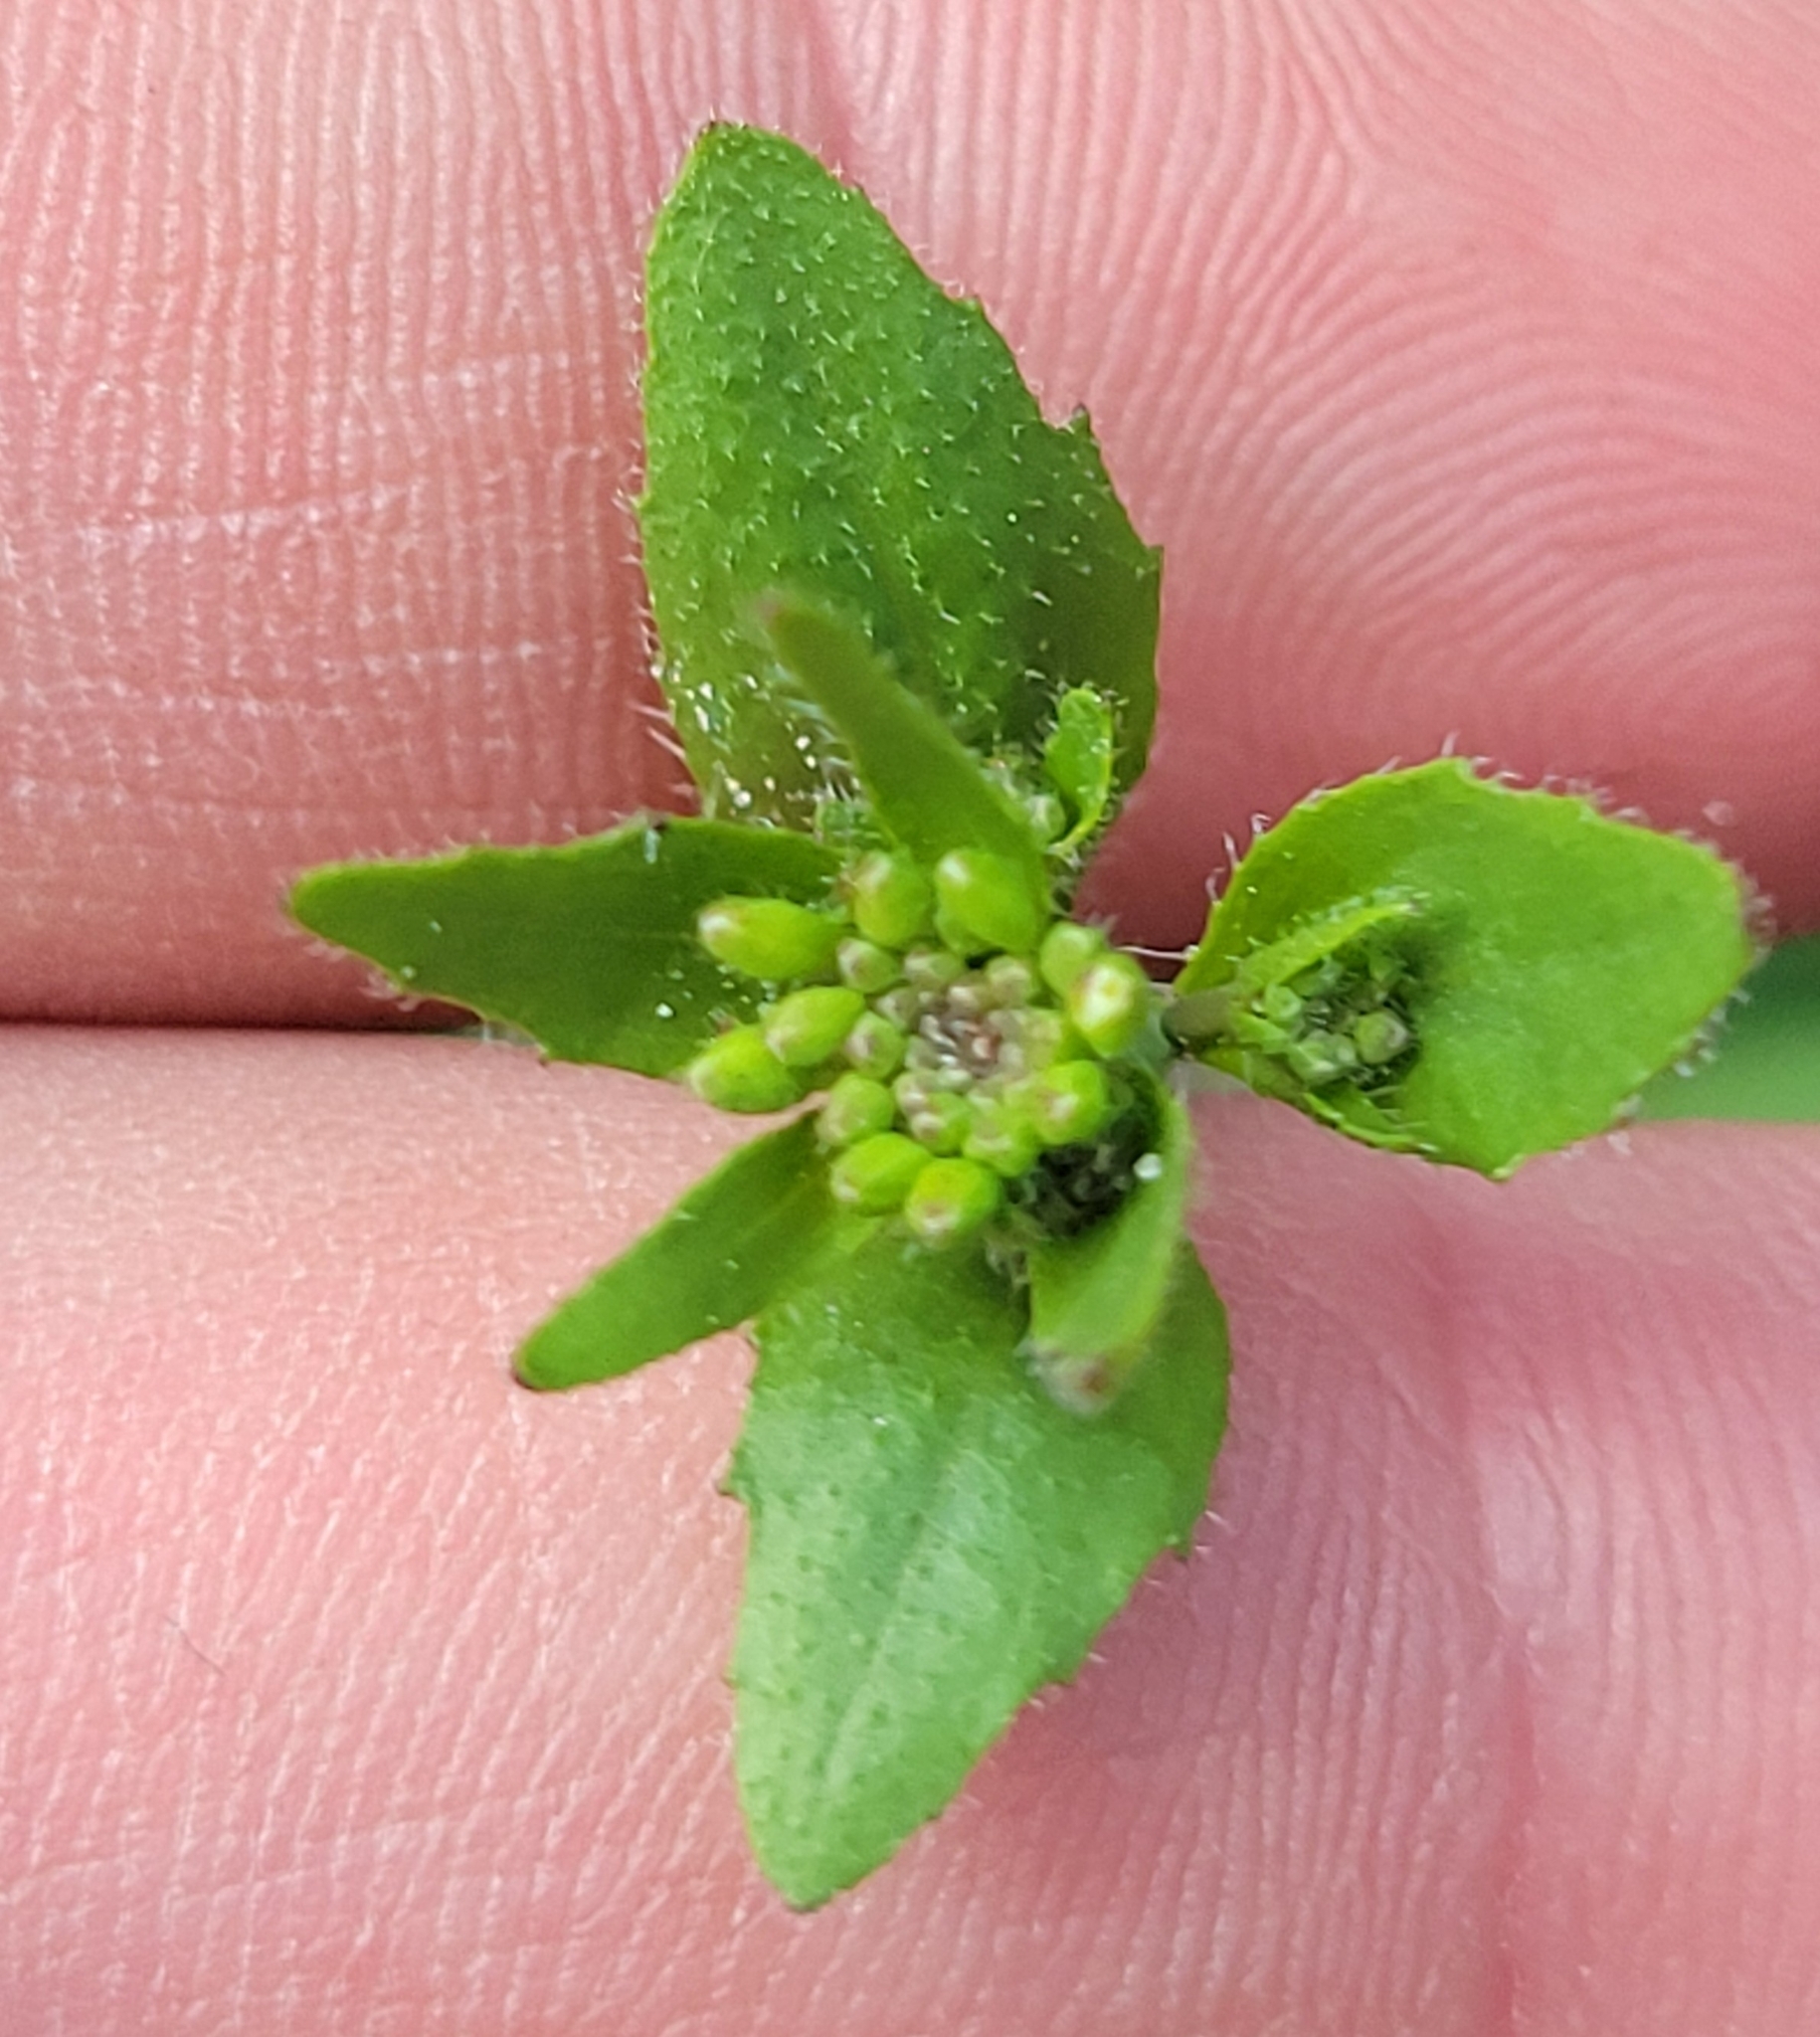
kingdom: Plantae
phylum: Tracheophyta
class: Magnoliopsida
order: Brassicales
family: Brassicaceae
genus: Arabidopsis
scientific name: Arabidopsis thaliana
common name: Thale cress
